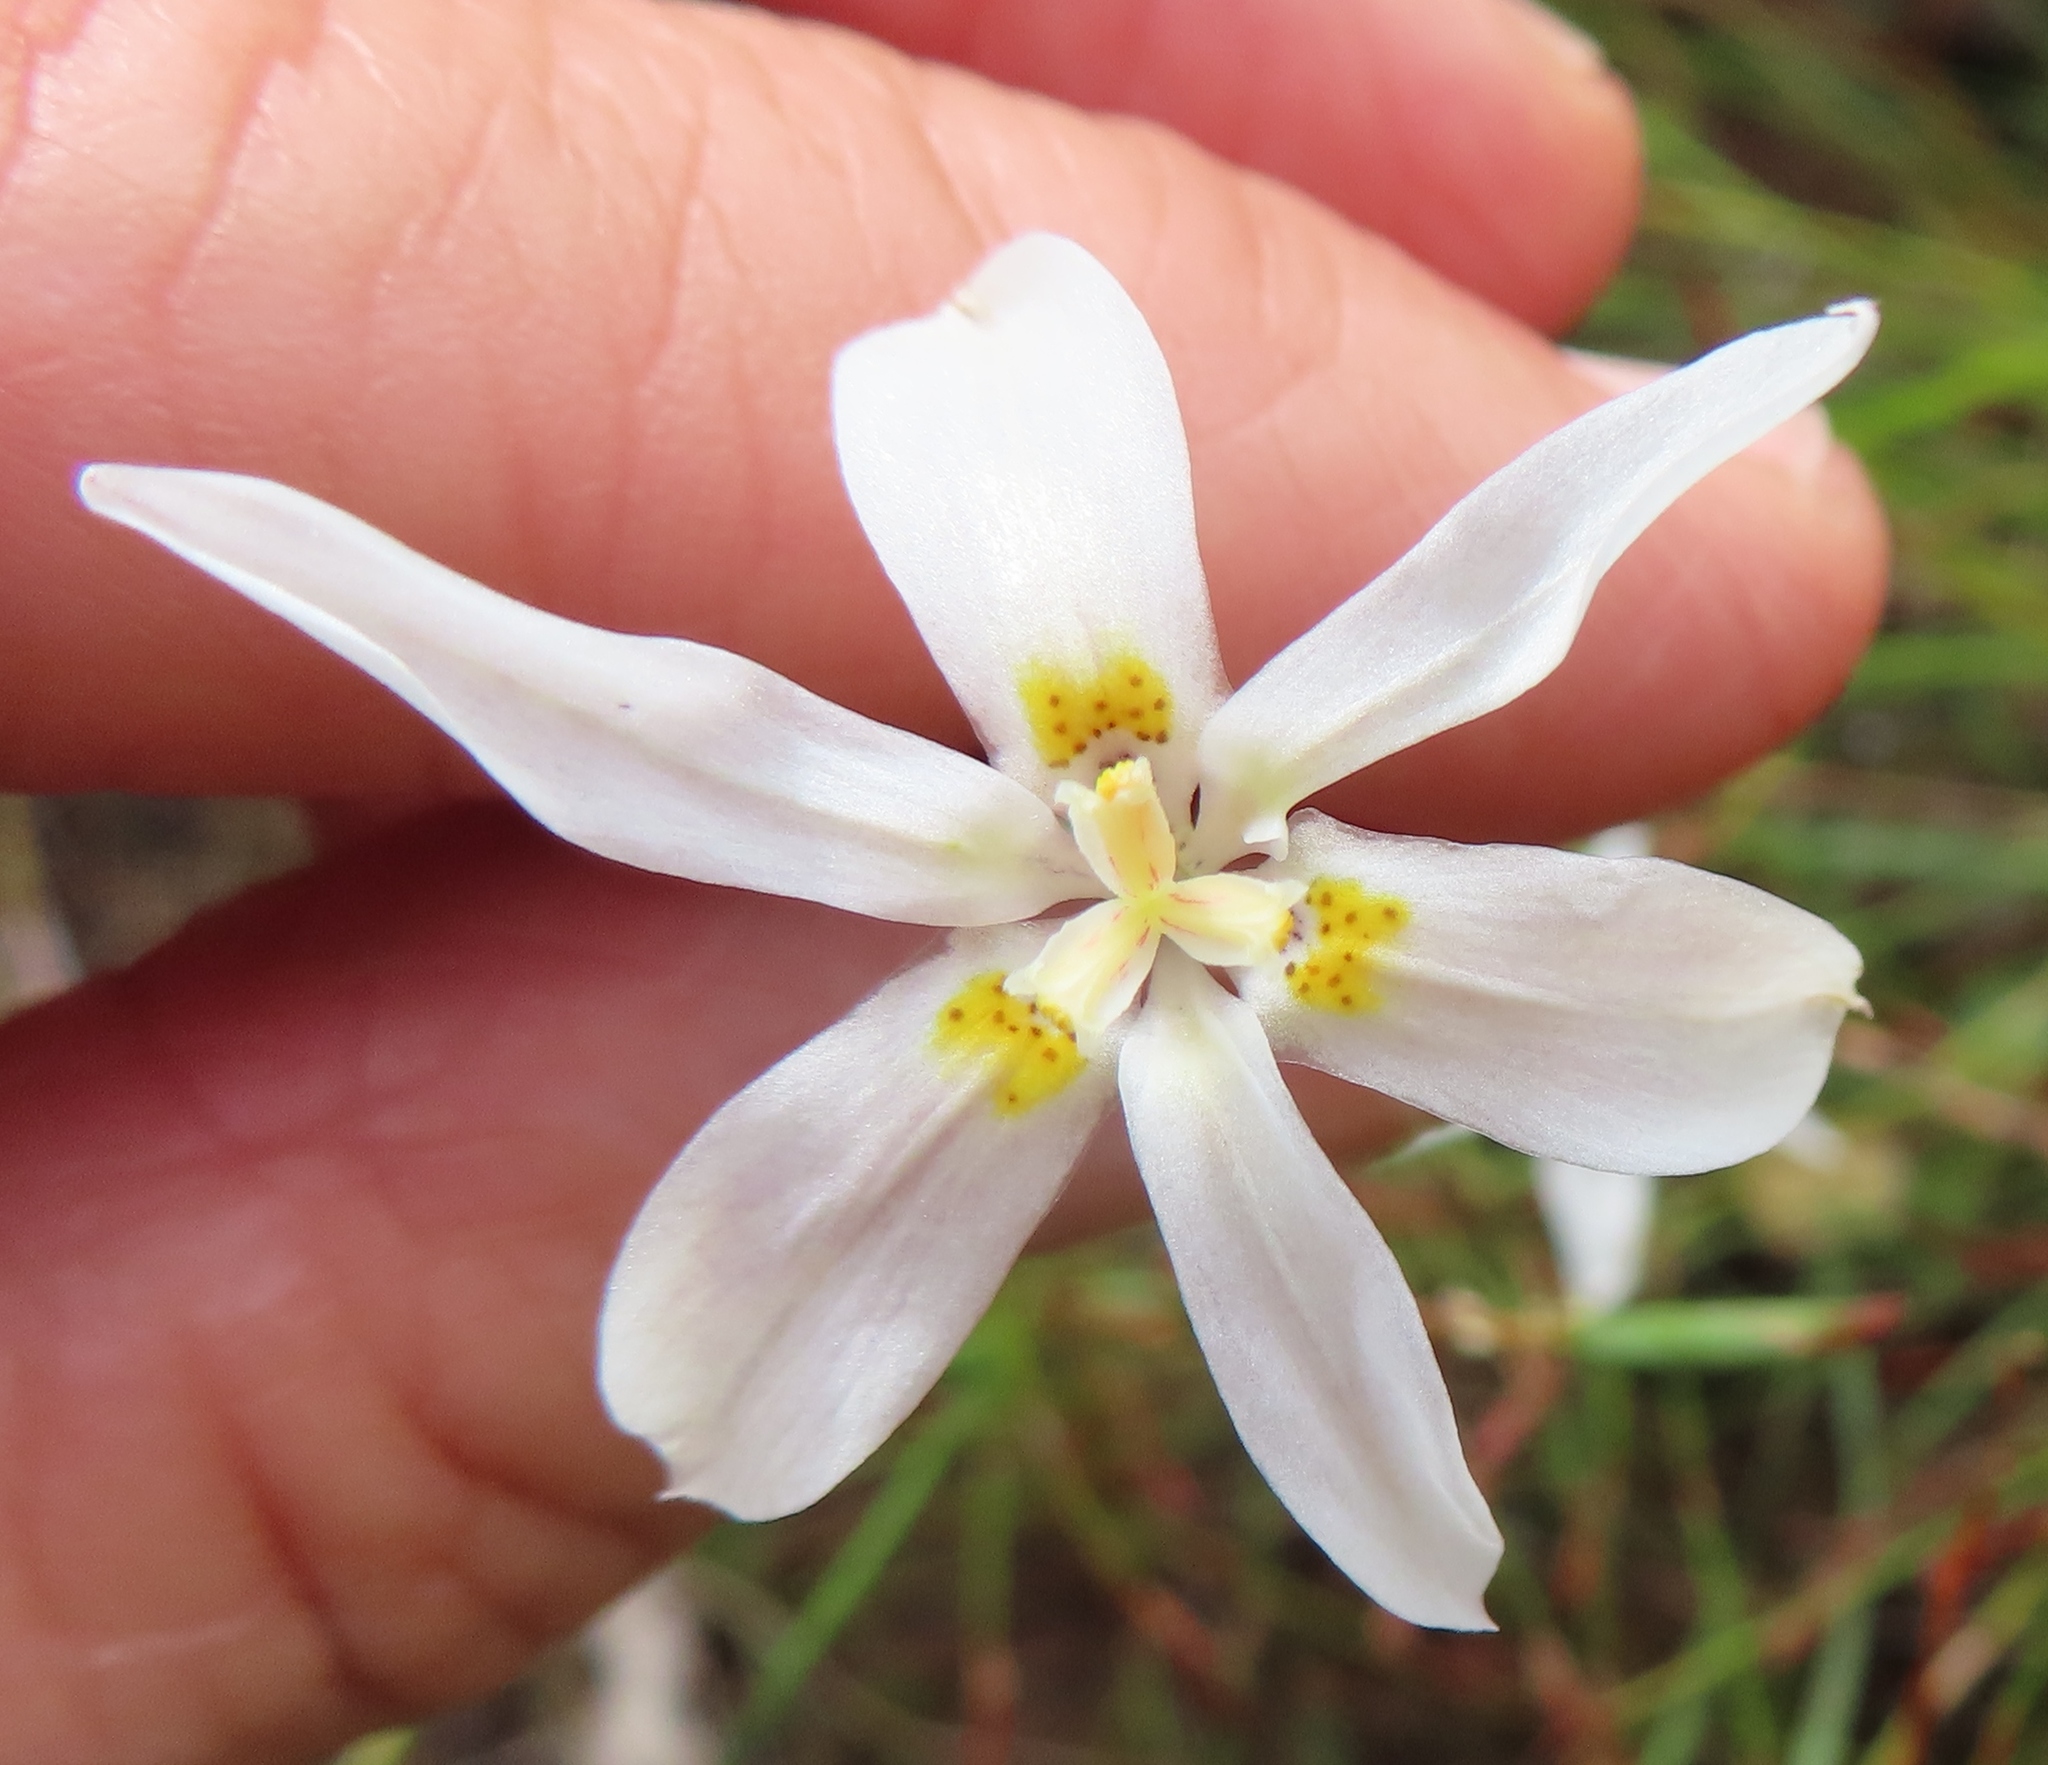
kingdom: Plantae
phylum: Tracheophyta
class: Liliopsida
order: Asparagales
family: Iridaceae
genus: Moraea
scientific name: Moraea elsiae
